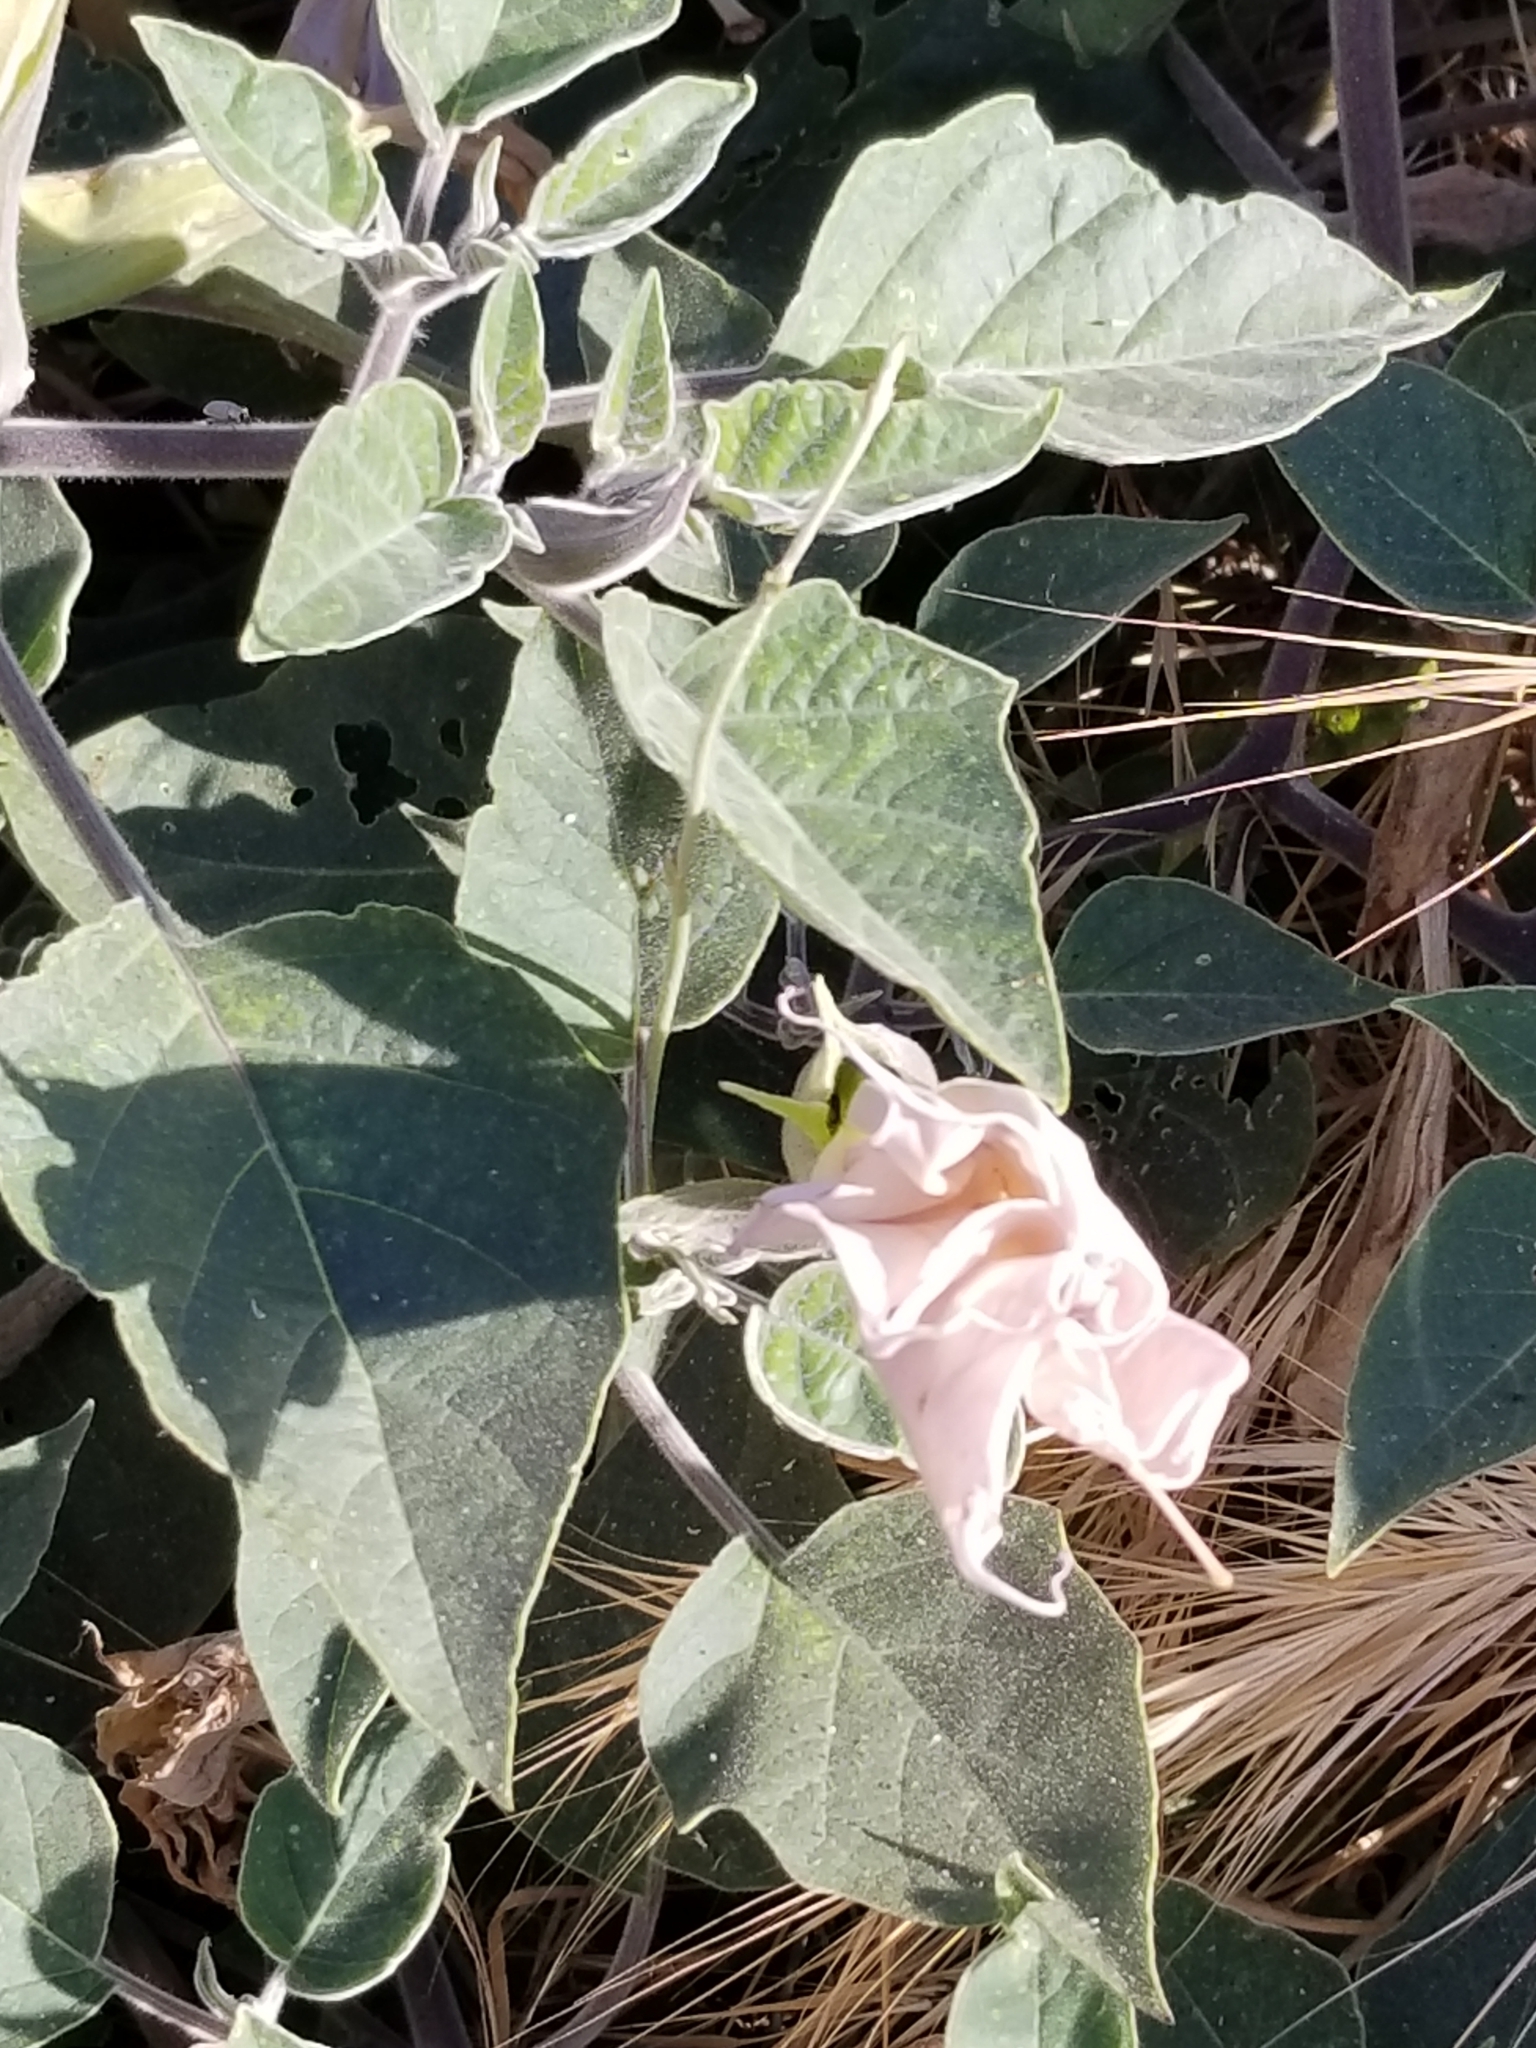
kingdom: Plantae
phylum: Tracheophyta
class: Magnoliopsida
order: Solanales
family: Solanaceae
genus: Datura
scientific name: Datura wrightii
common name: Sacred thorn-apple
